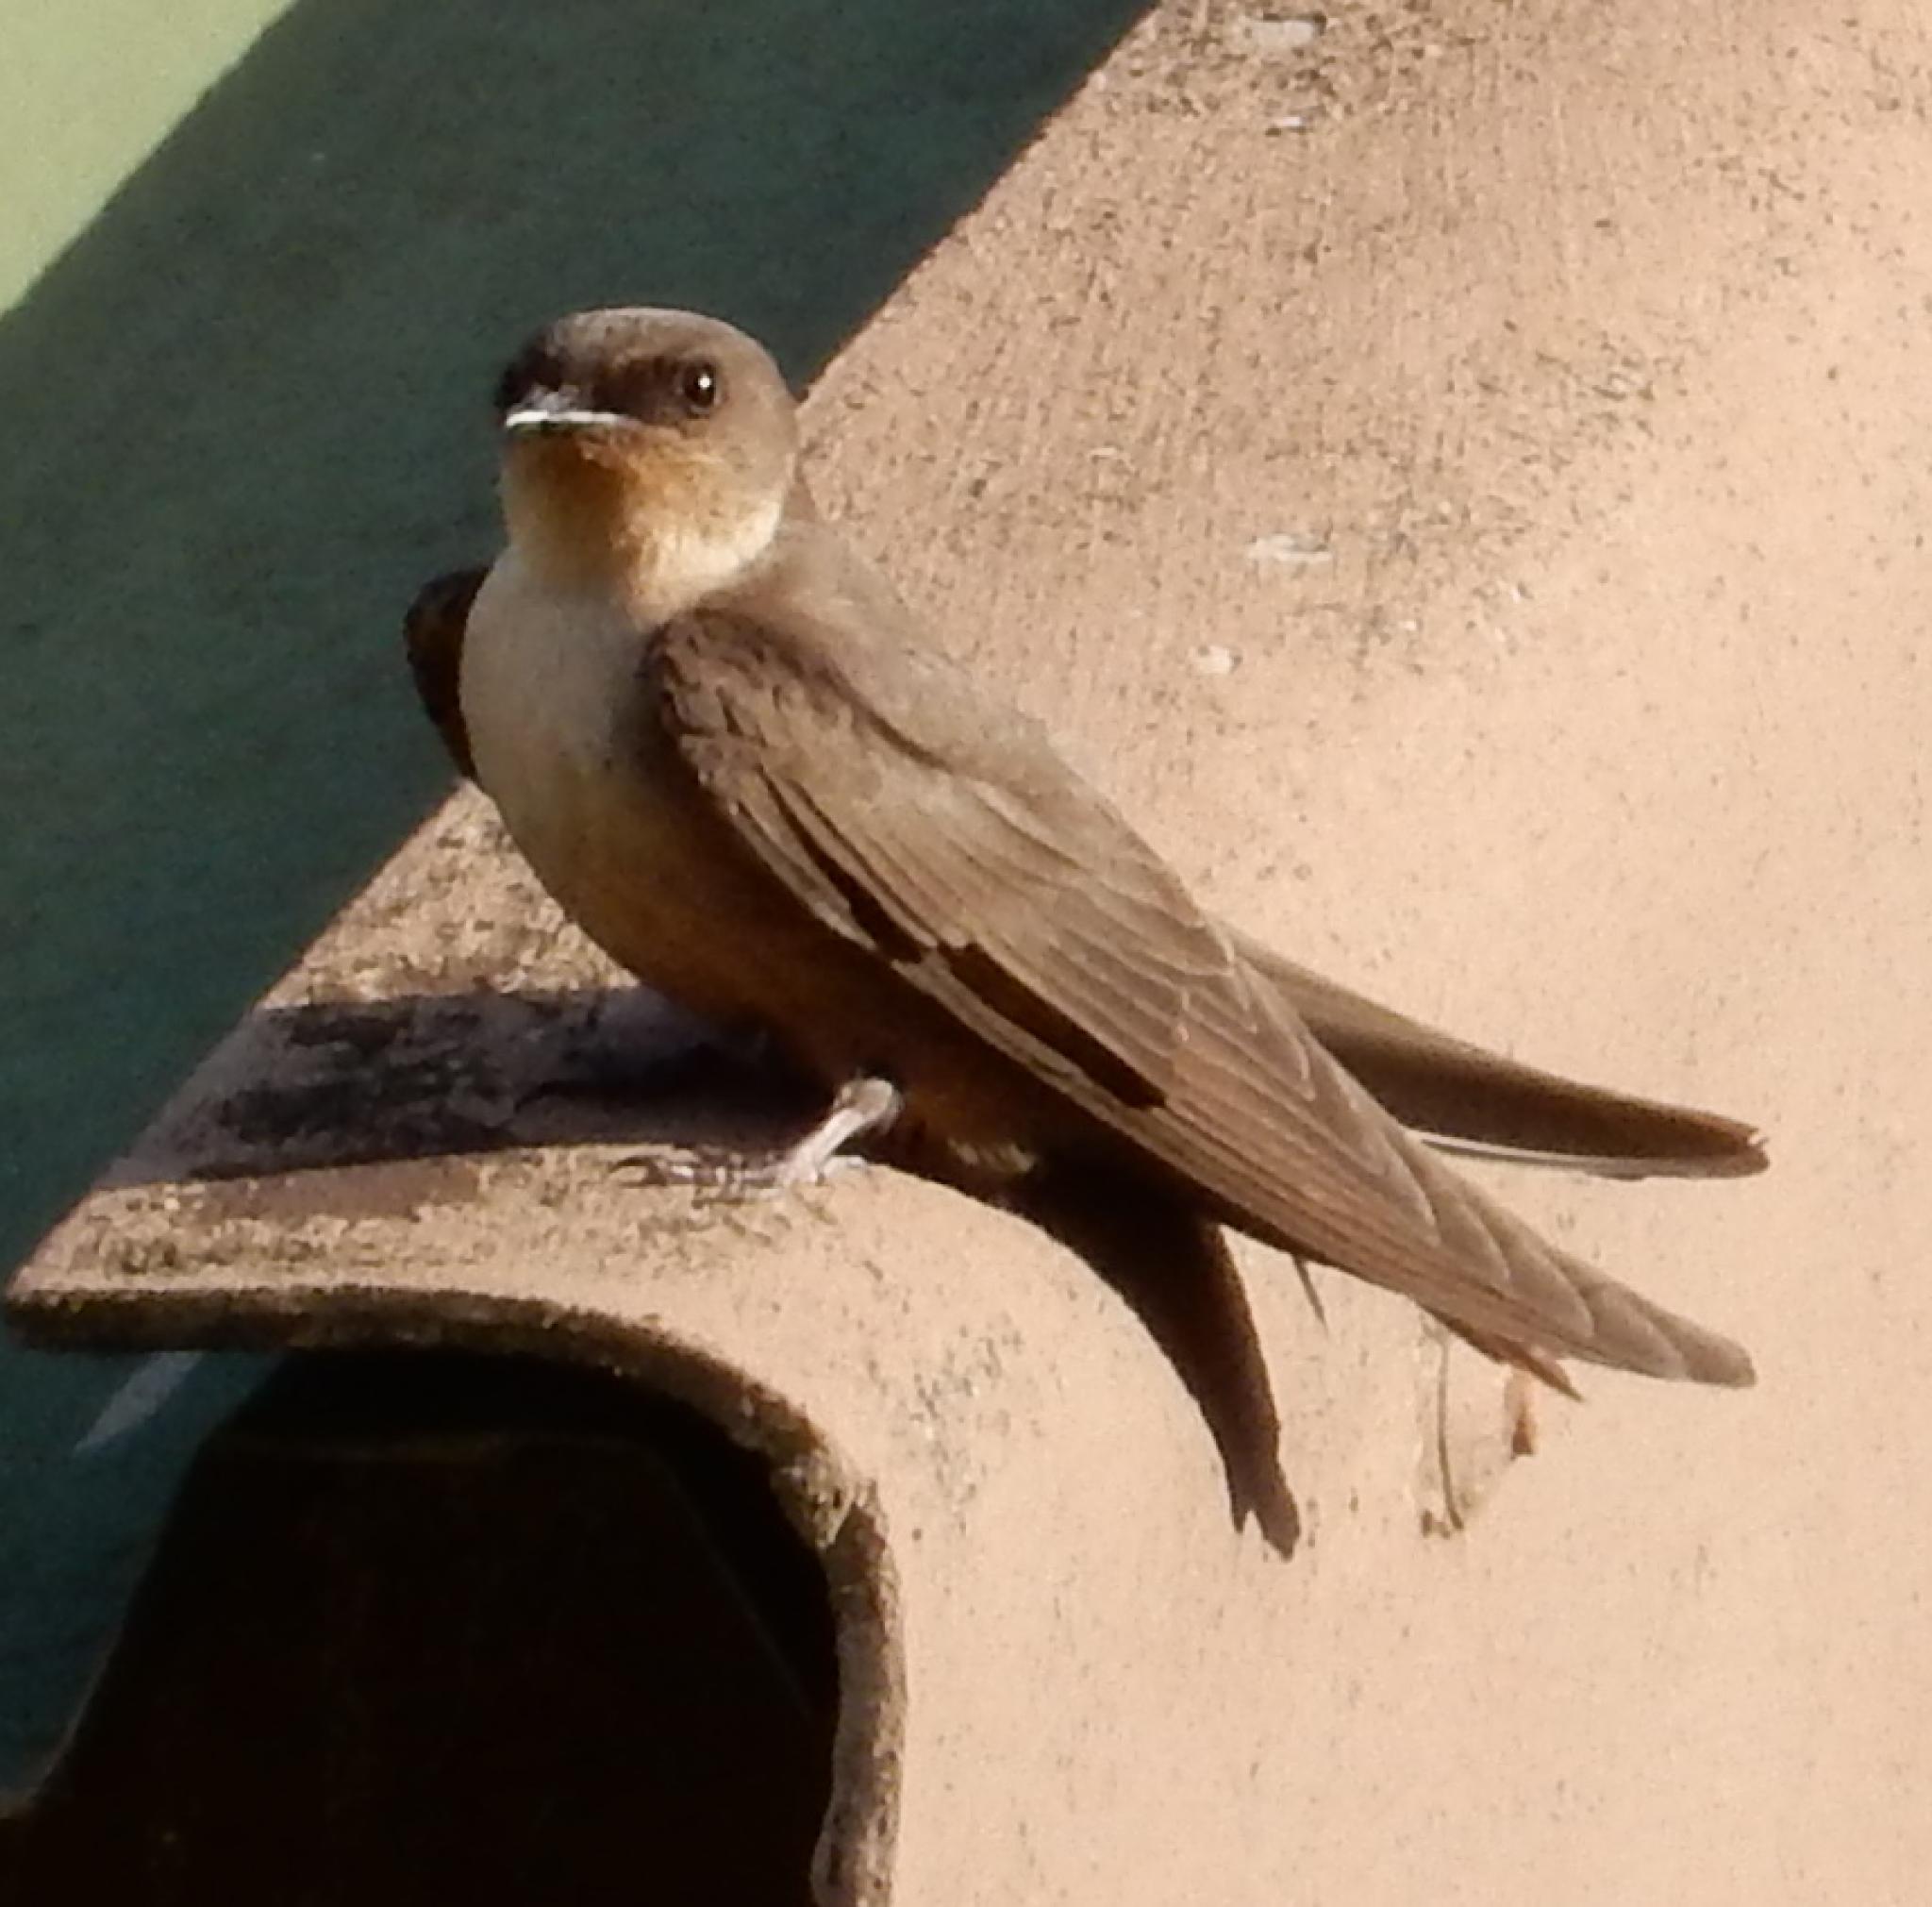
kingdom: Animalia
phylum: Chordata
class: Aves
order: Passeriformes
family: Hirundinidae
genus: Ptyonoprogne
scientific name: Ptyonoprogne fuligula
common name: Rock martin
